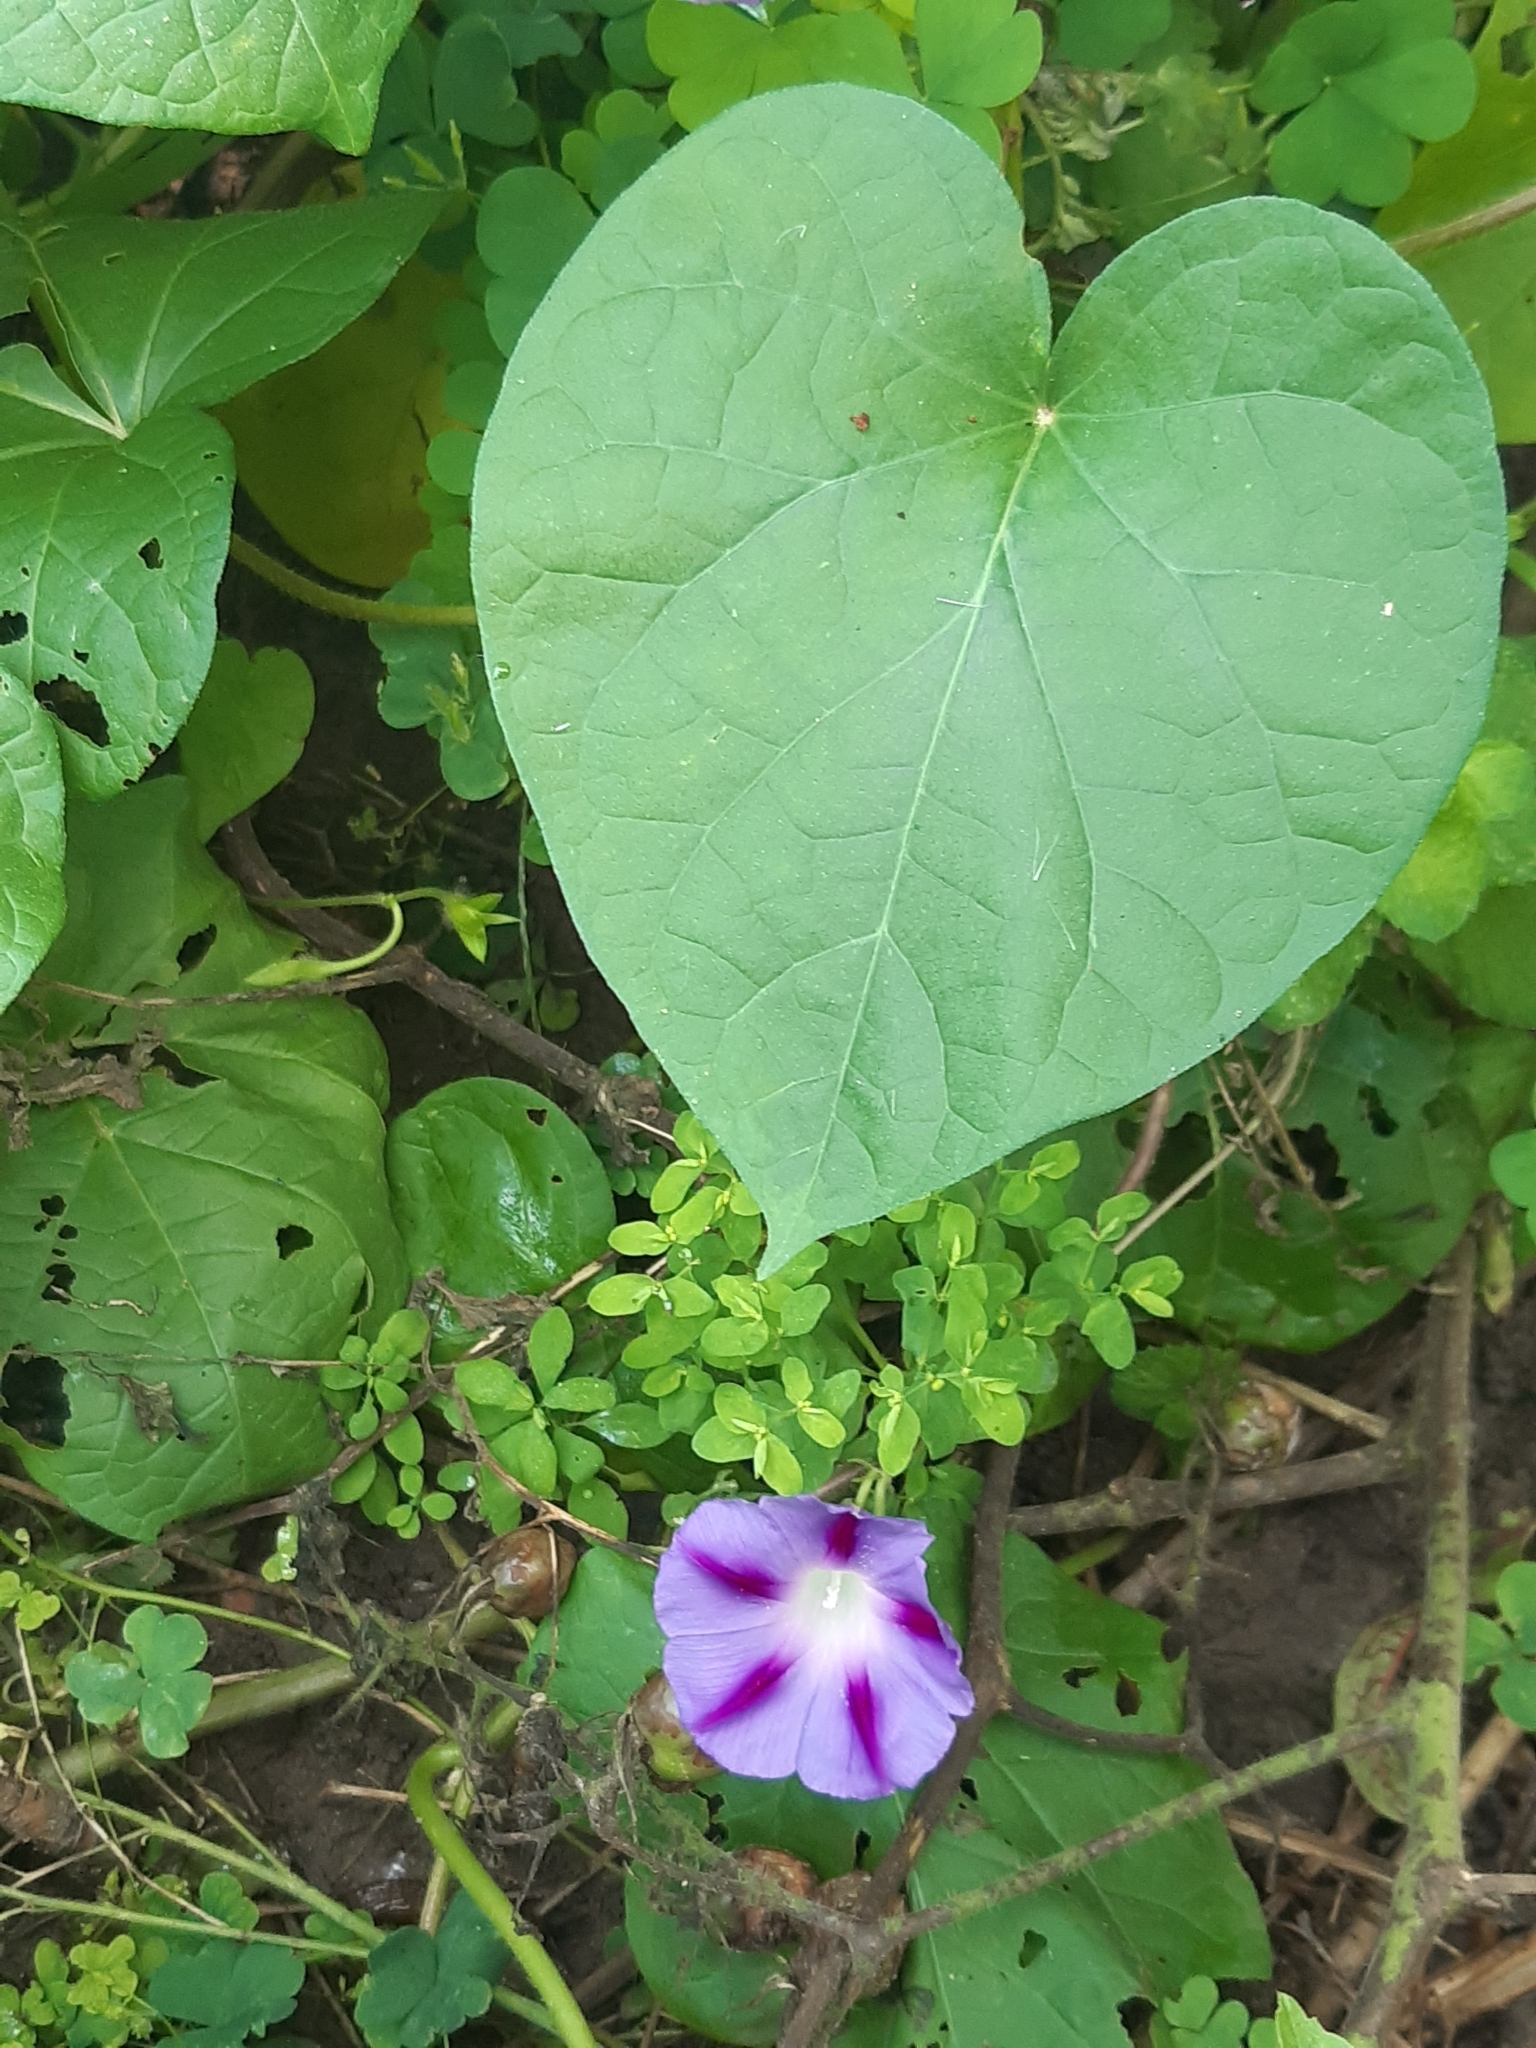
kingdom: Plantae
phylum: Tracheophyta
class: Magnoliopsida
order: Solanales
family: Convolvulaceae
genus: Ipomoea
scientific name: Ipomoea purpurea
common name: Common morning-glory
